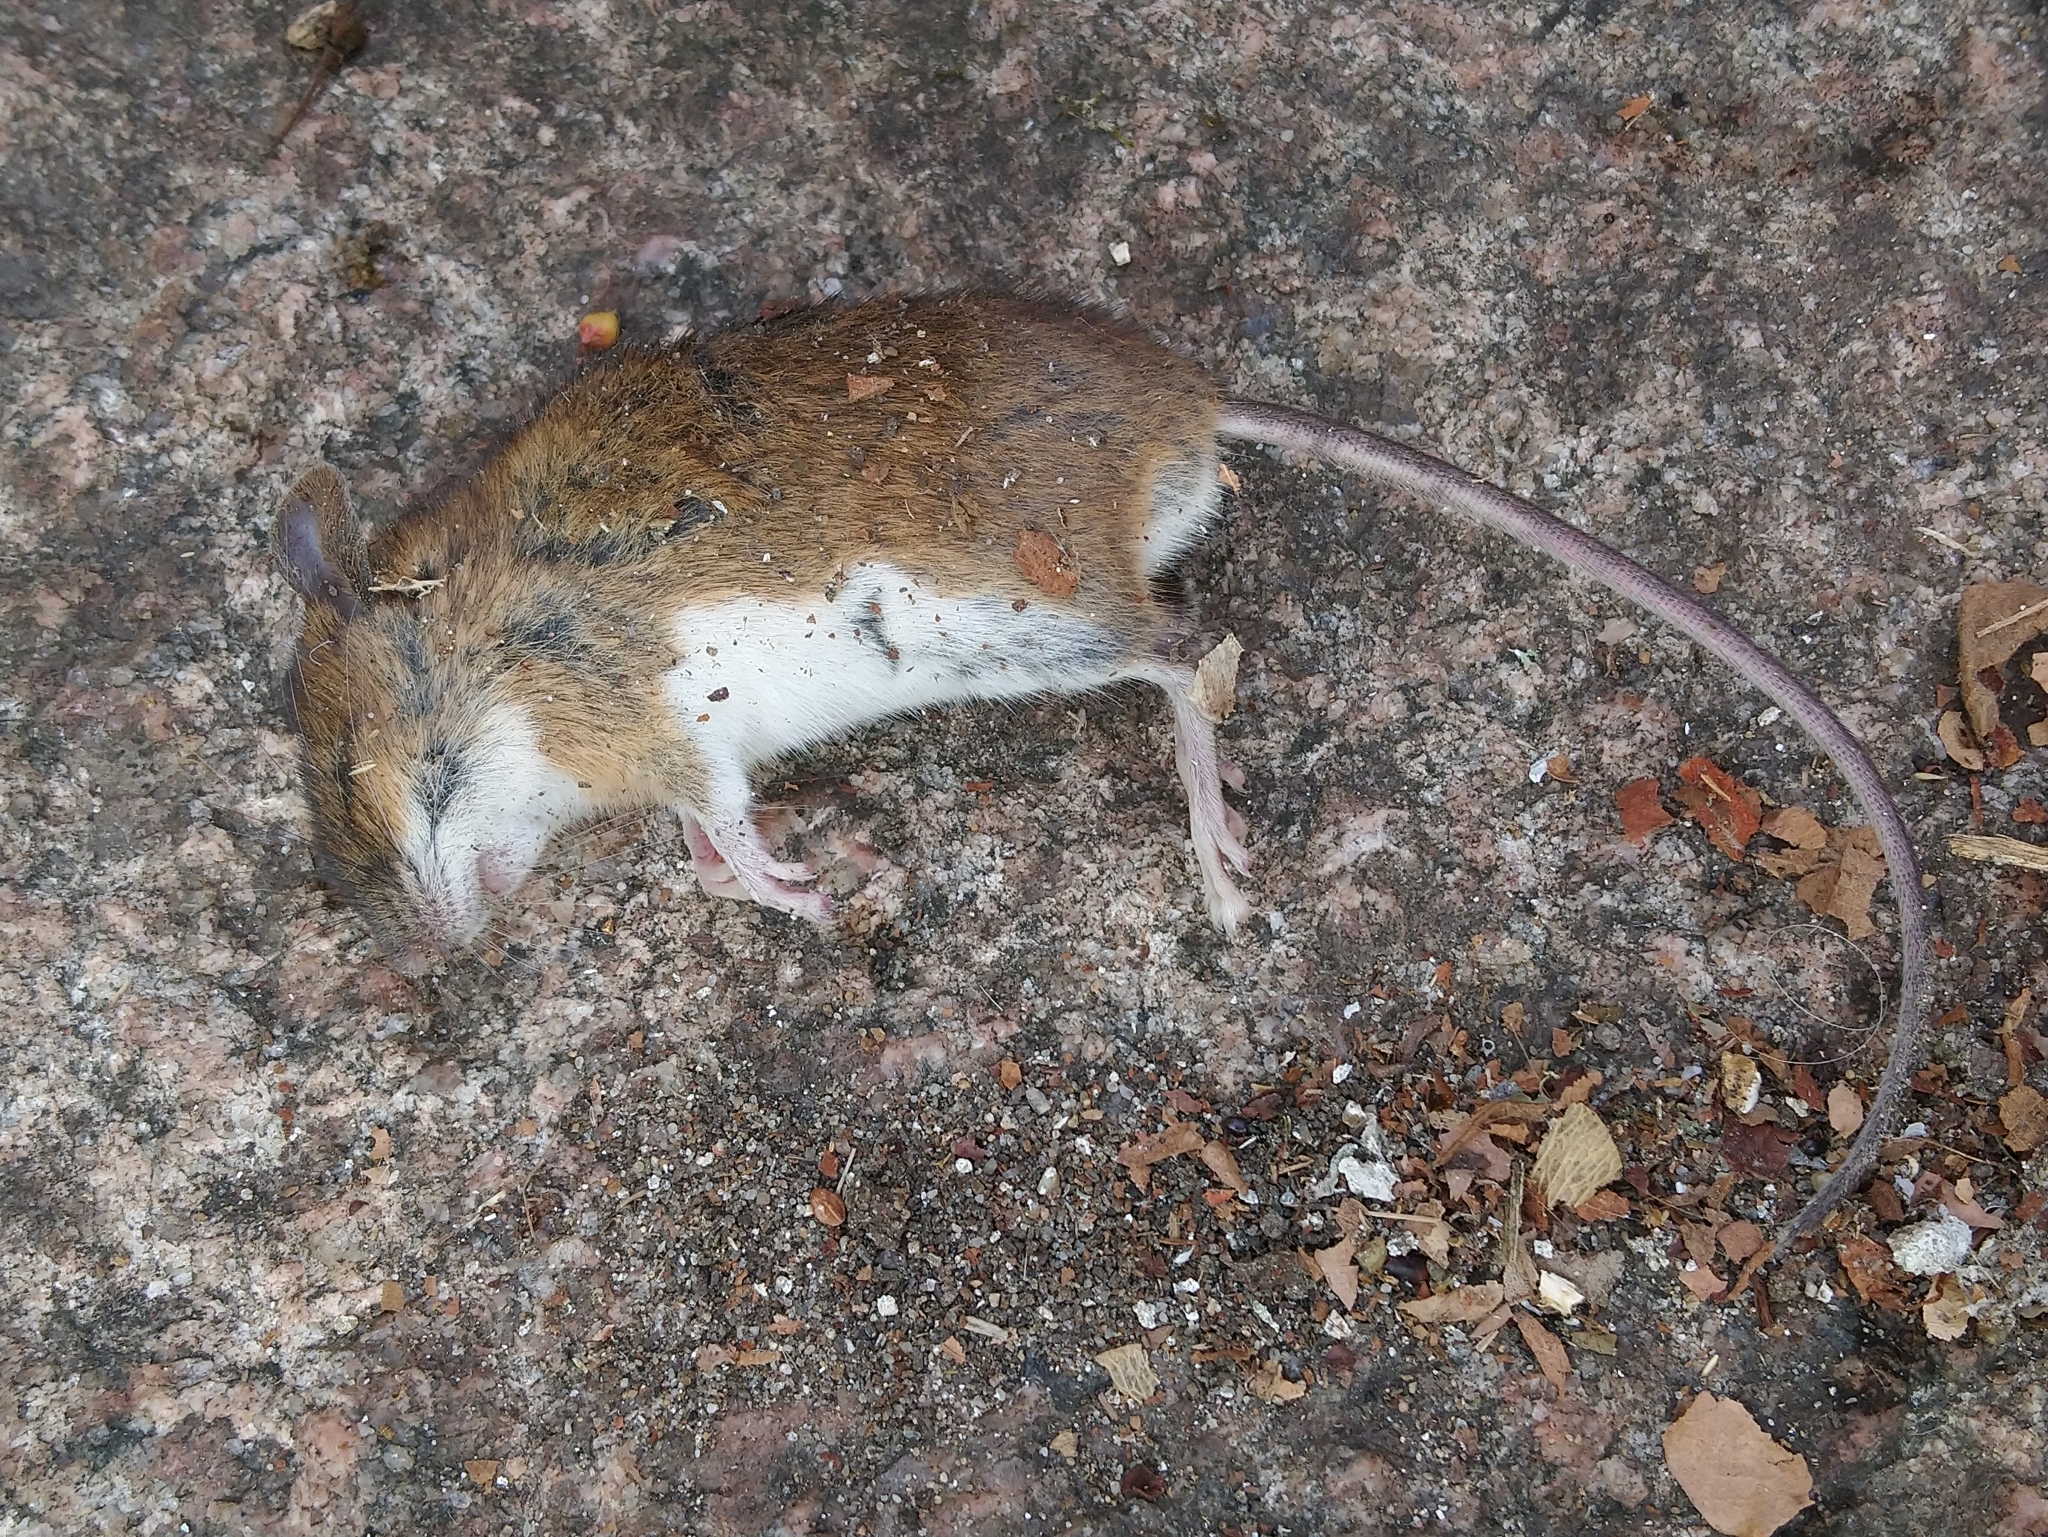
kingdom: Animalia
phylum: Chordata
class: Mammalia
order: Rodentia
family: Muridae
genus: Apodemus
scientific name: Apodemus flavicollis
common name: Yellow-necked field mouse
